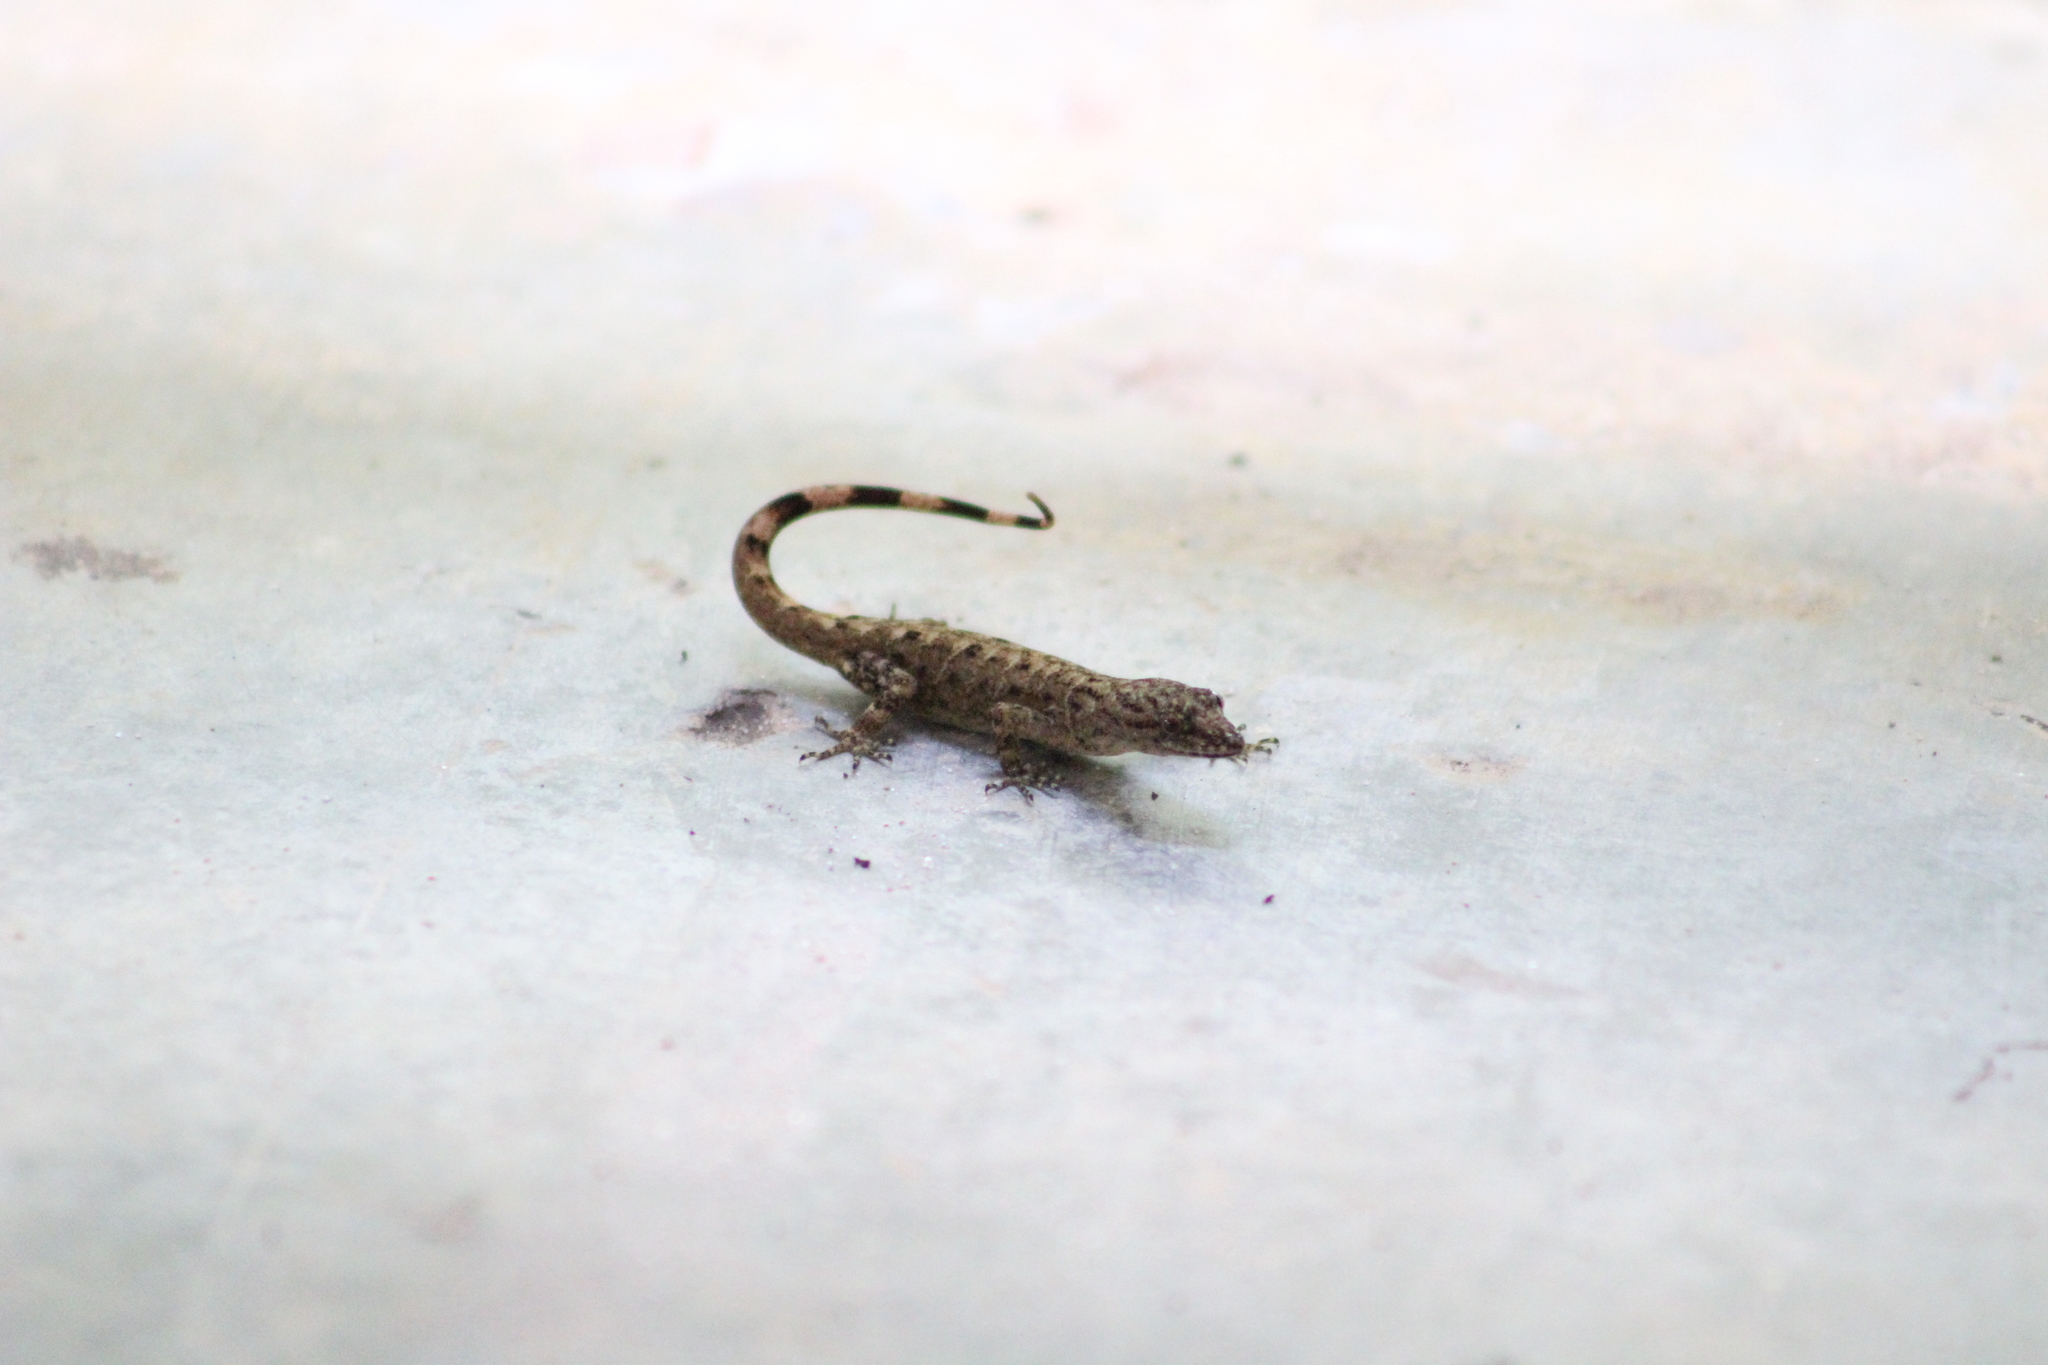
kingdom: Animalia
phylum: Chordata
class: Squamata
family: Sphaerodactylidae
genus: Gonatodes
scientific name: Gonatodes humeralis
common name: South american clawed gecko
